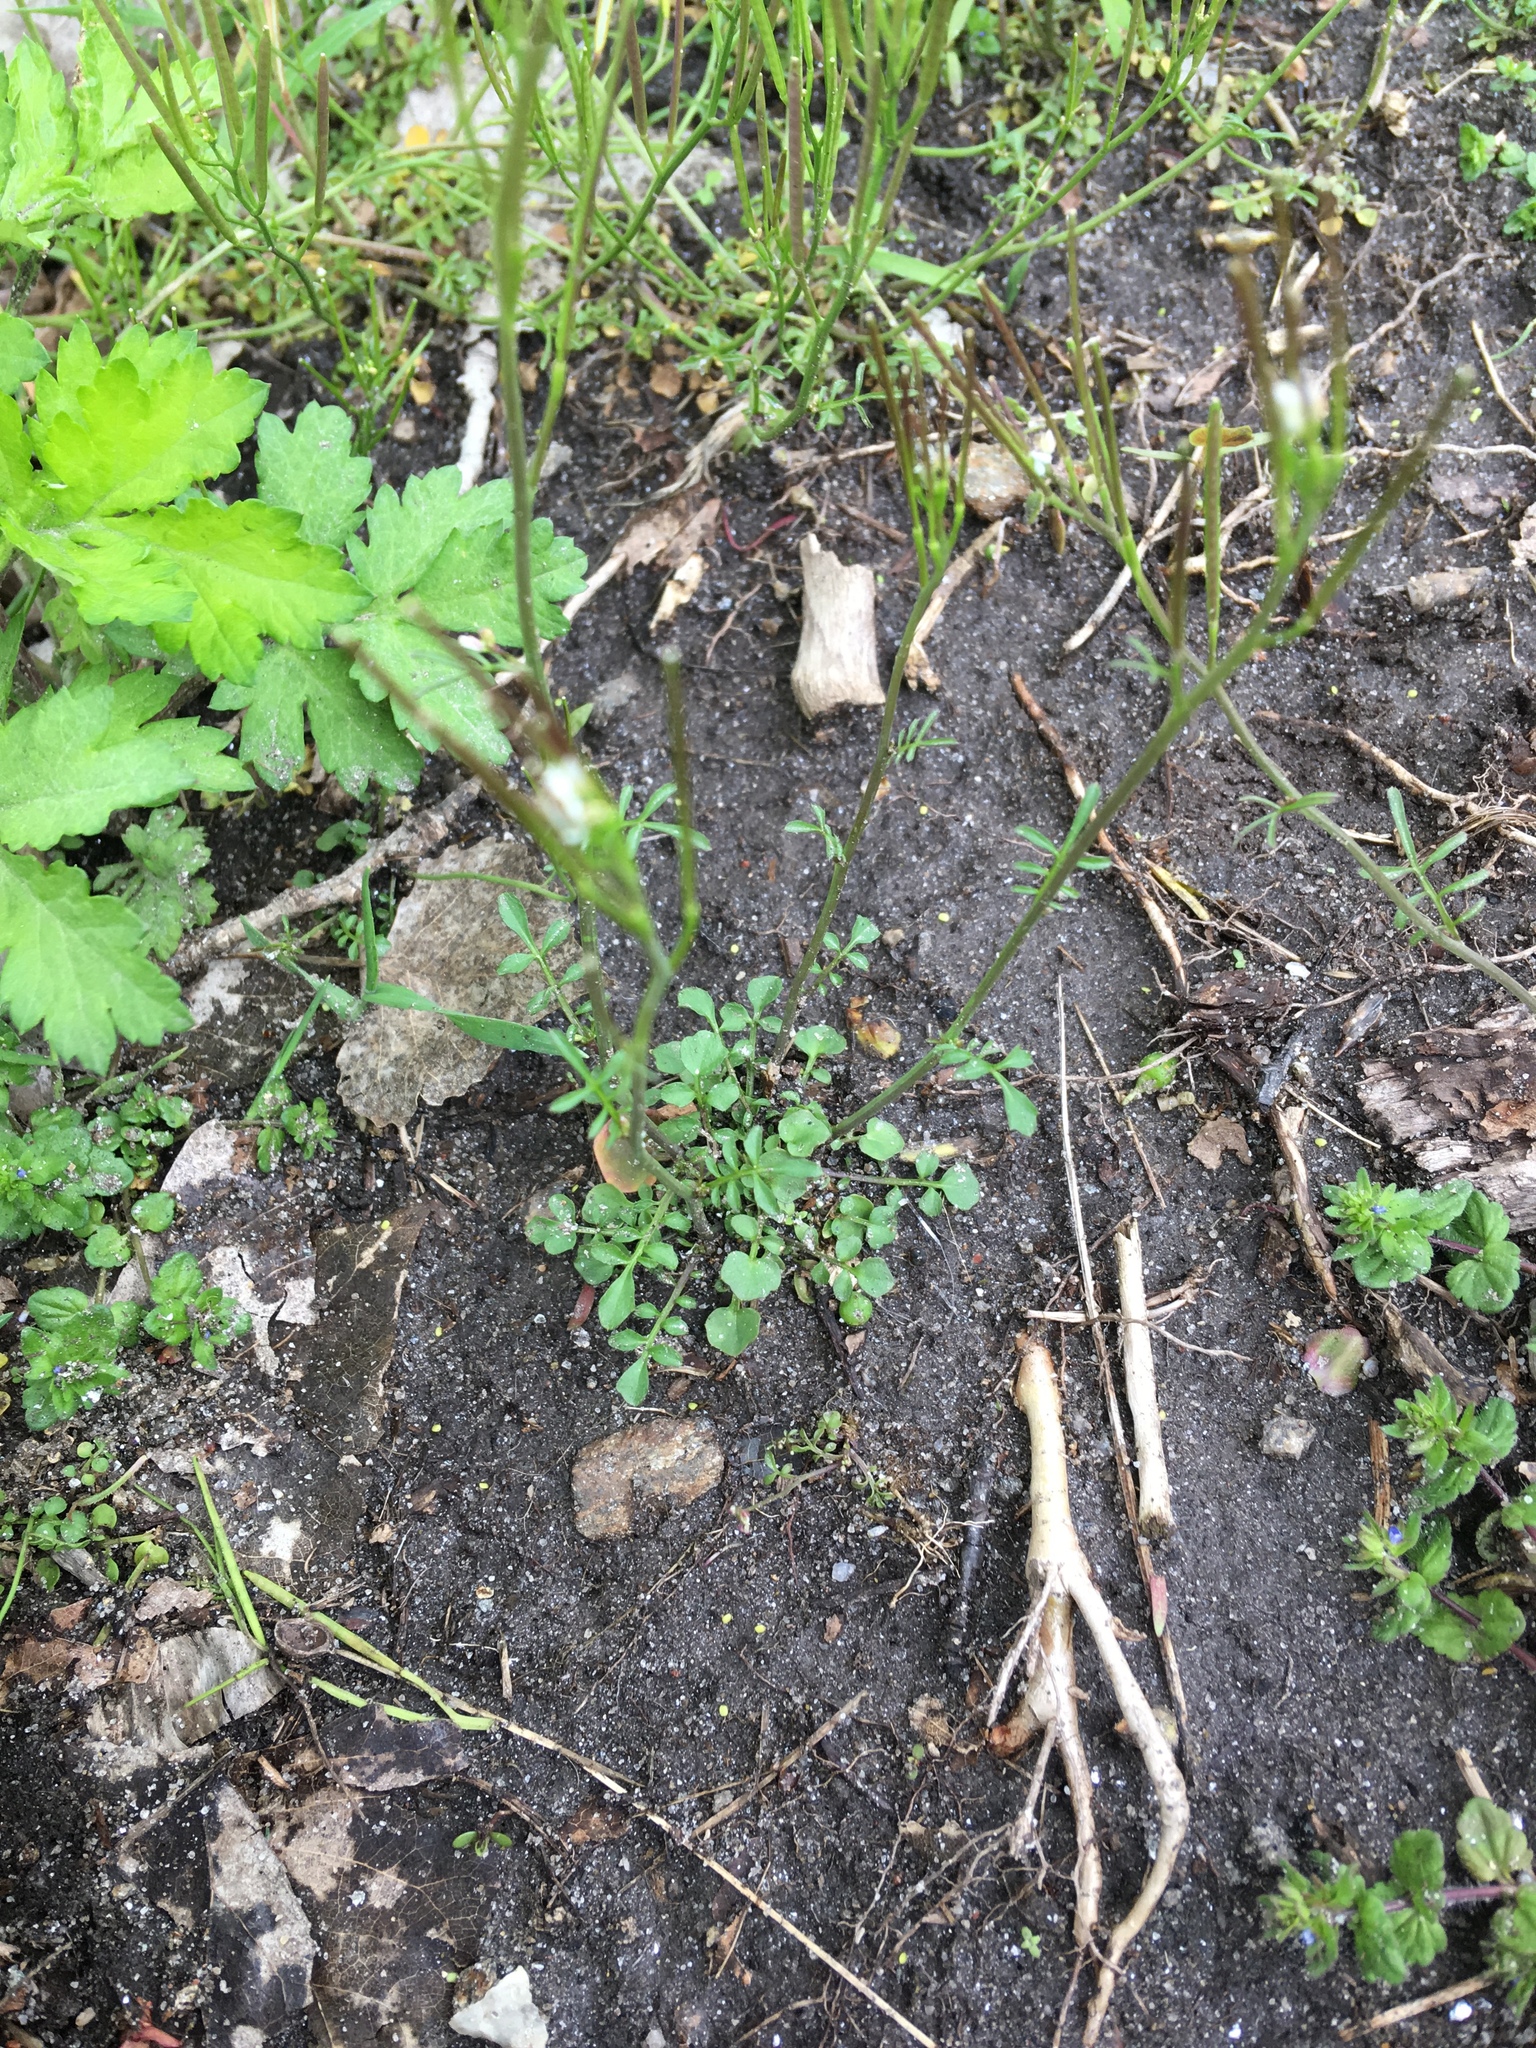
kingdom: Plantae
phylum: Tracheophyta
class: Magnoliopsida
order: Brassicales
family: Brassicaceae
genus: Cardamine
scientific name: Cardamine hirsuta
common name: Hairy bittercress
